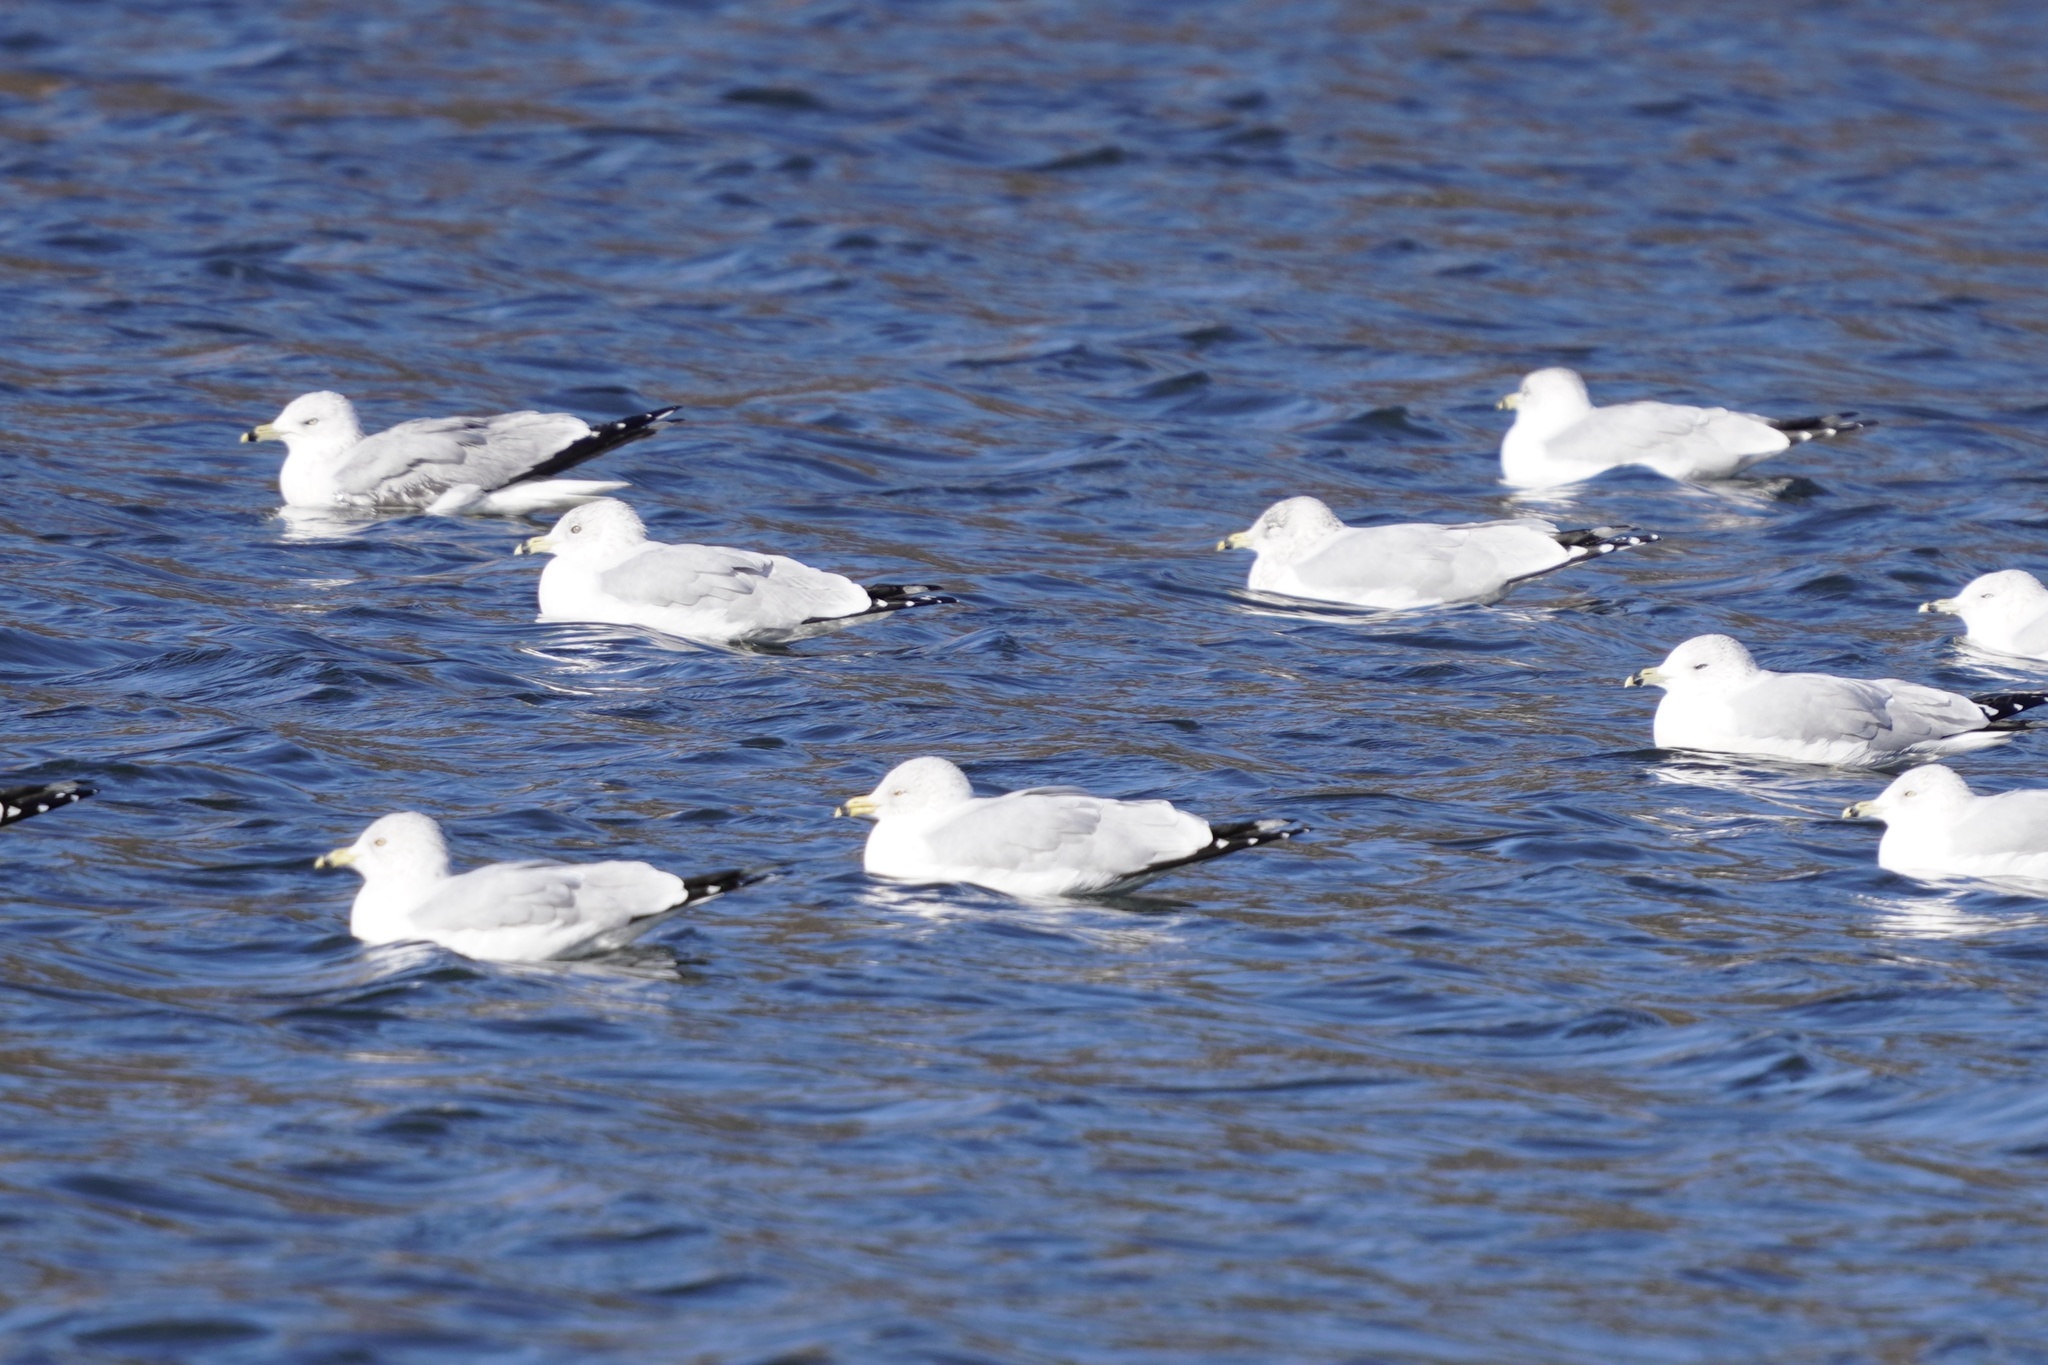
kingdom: Animalia
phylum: Chordata
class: Aves
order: Charadriiformes
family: Laridae
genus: Larus
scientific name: Larus delawarensis
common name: Ring-billed gull
